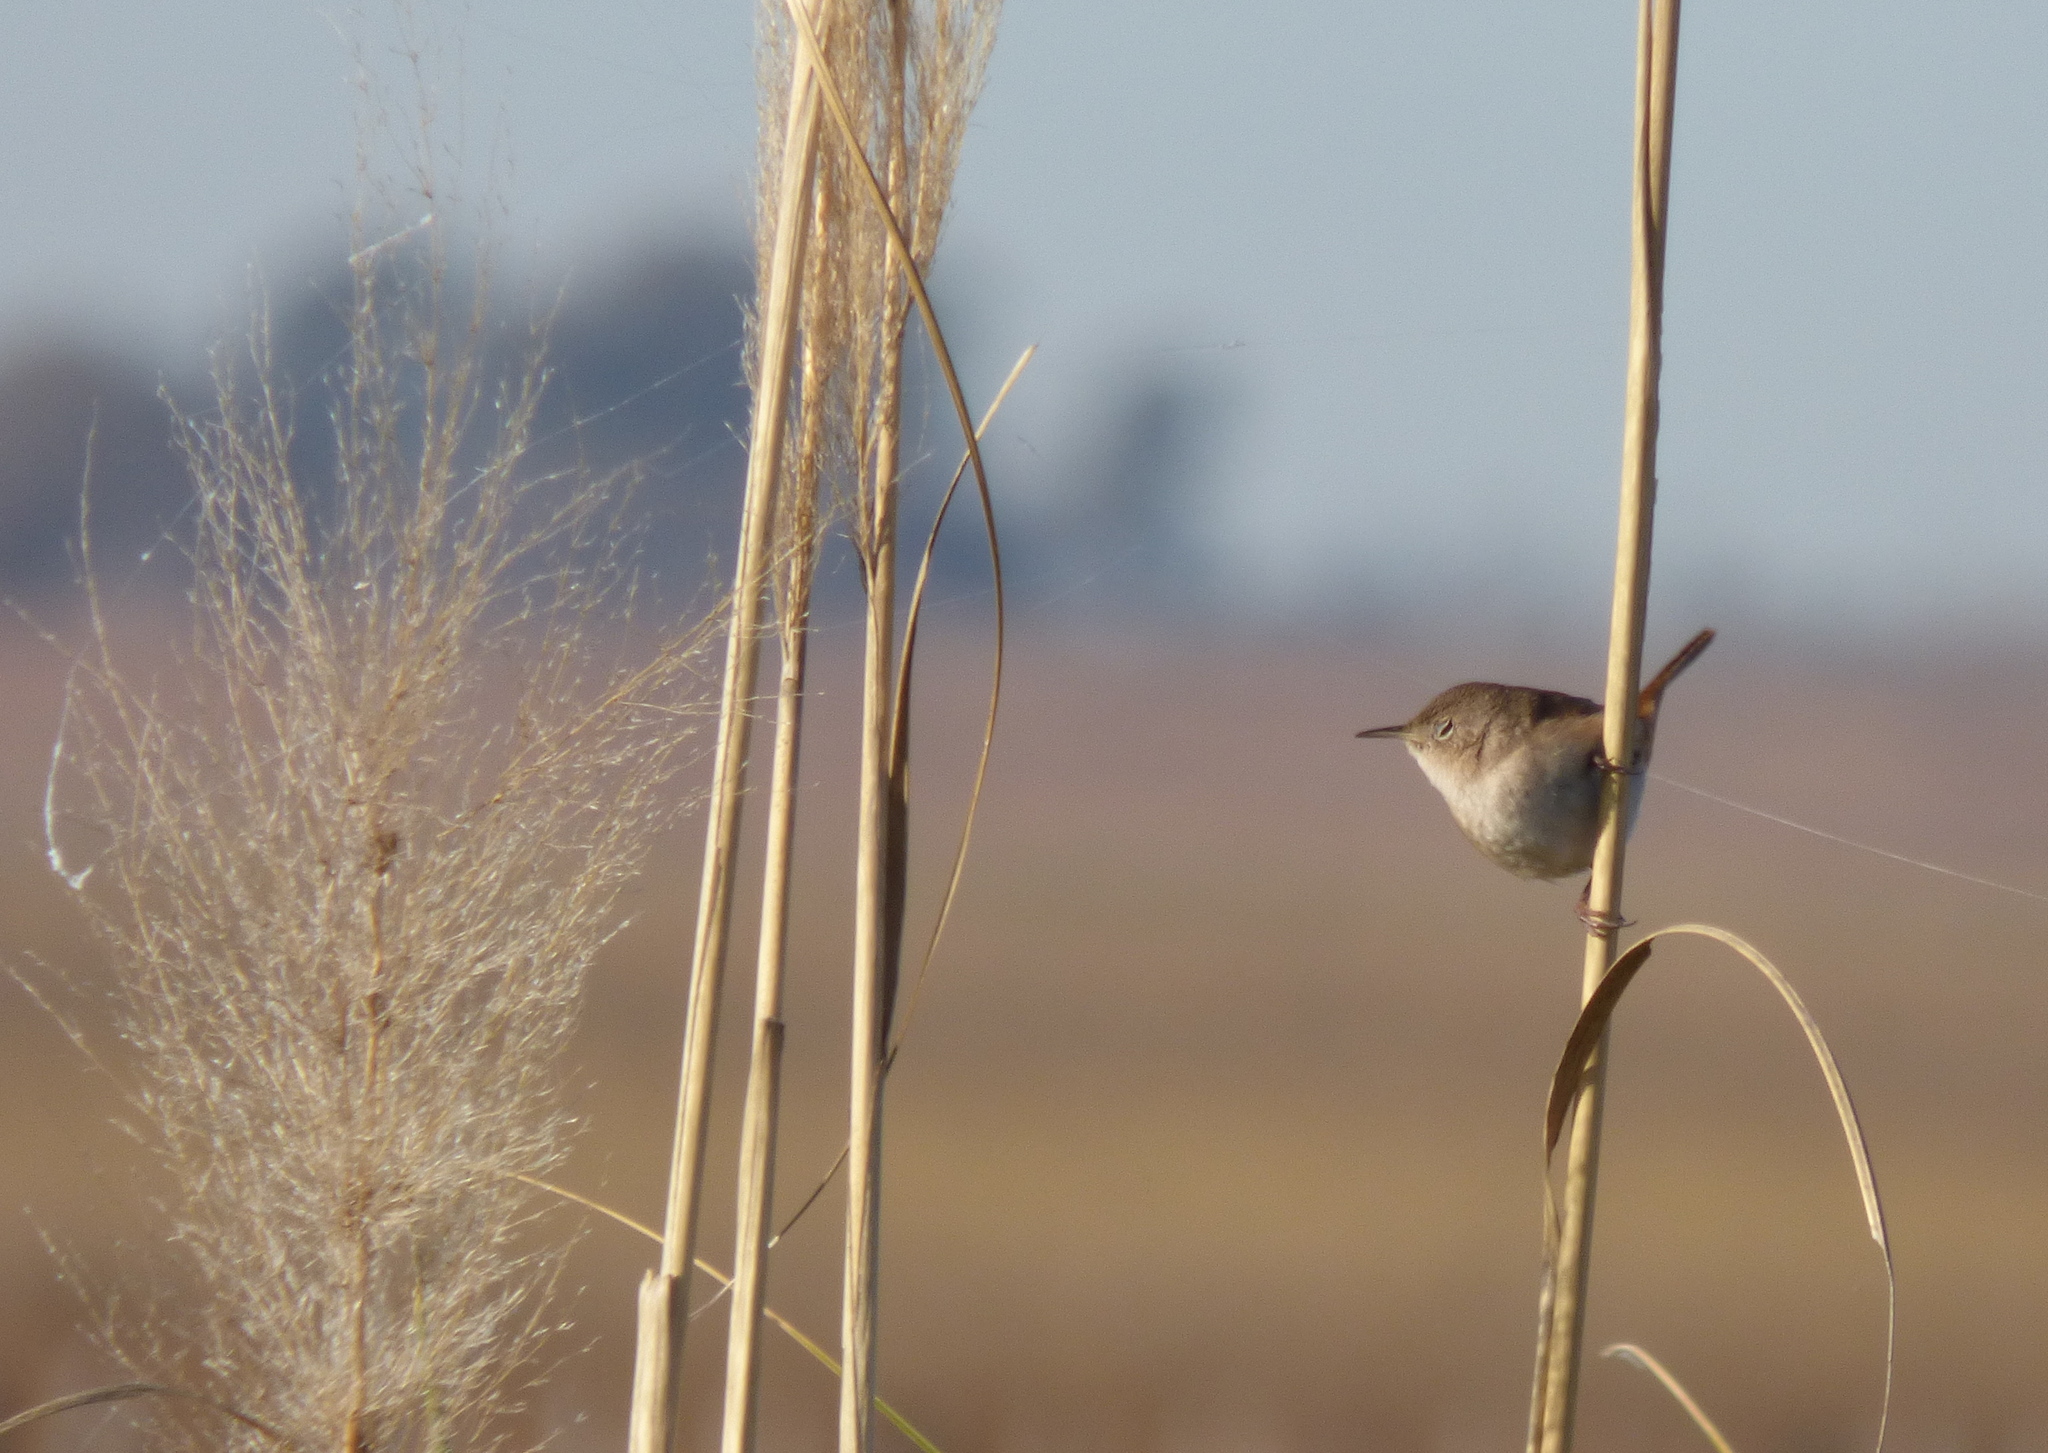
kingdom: Animalia
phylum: Chordata
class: Aves
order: Passeriformes
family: Troglodytidae
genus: Troglodytes
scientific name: Troglodytes aedon
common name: House wren
